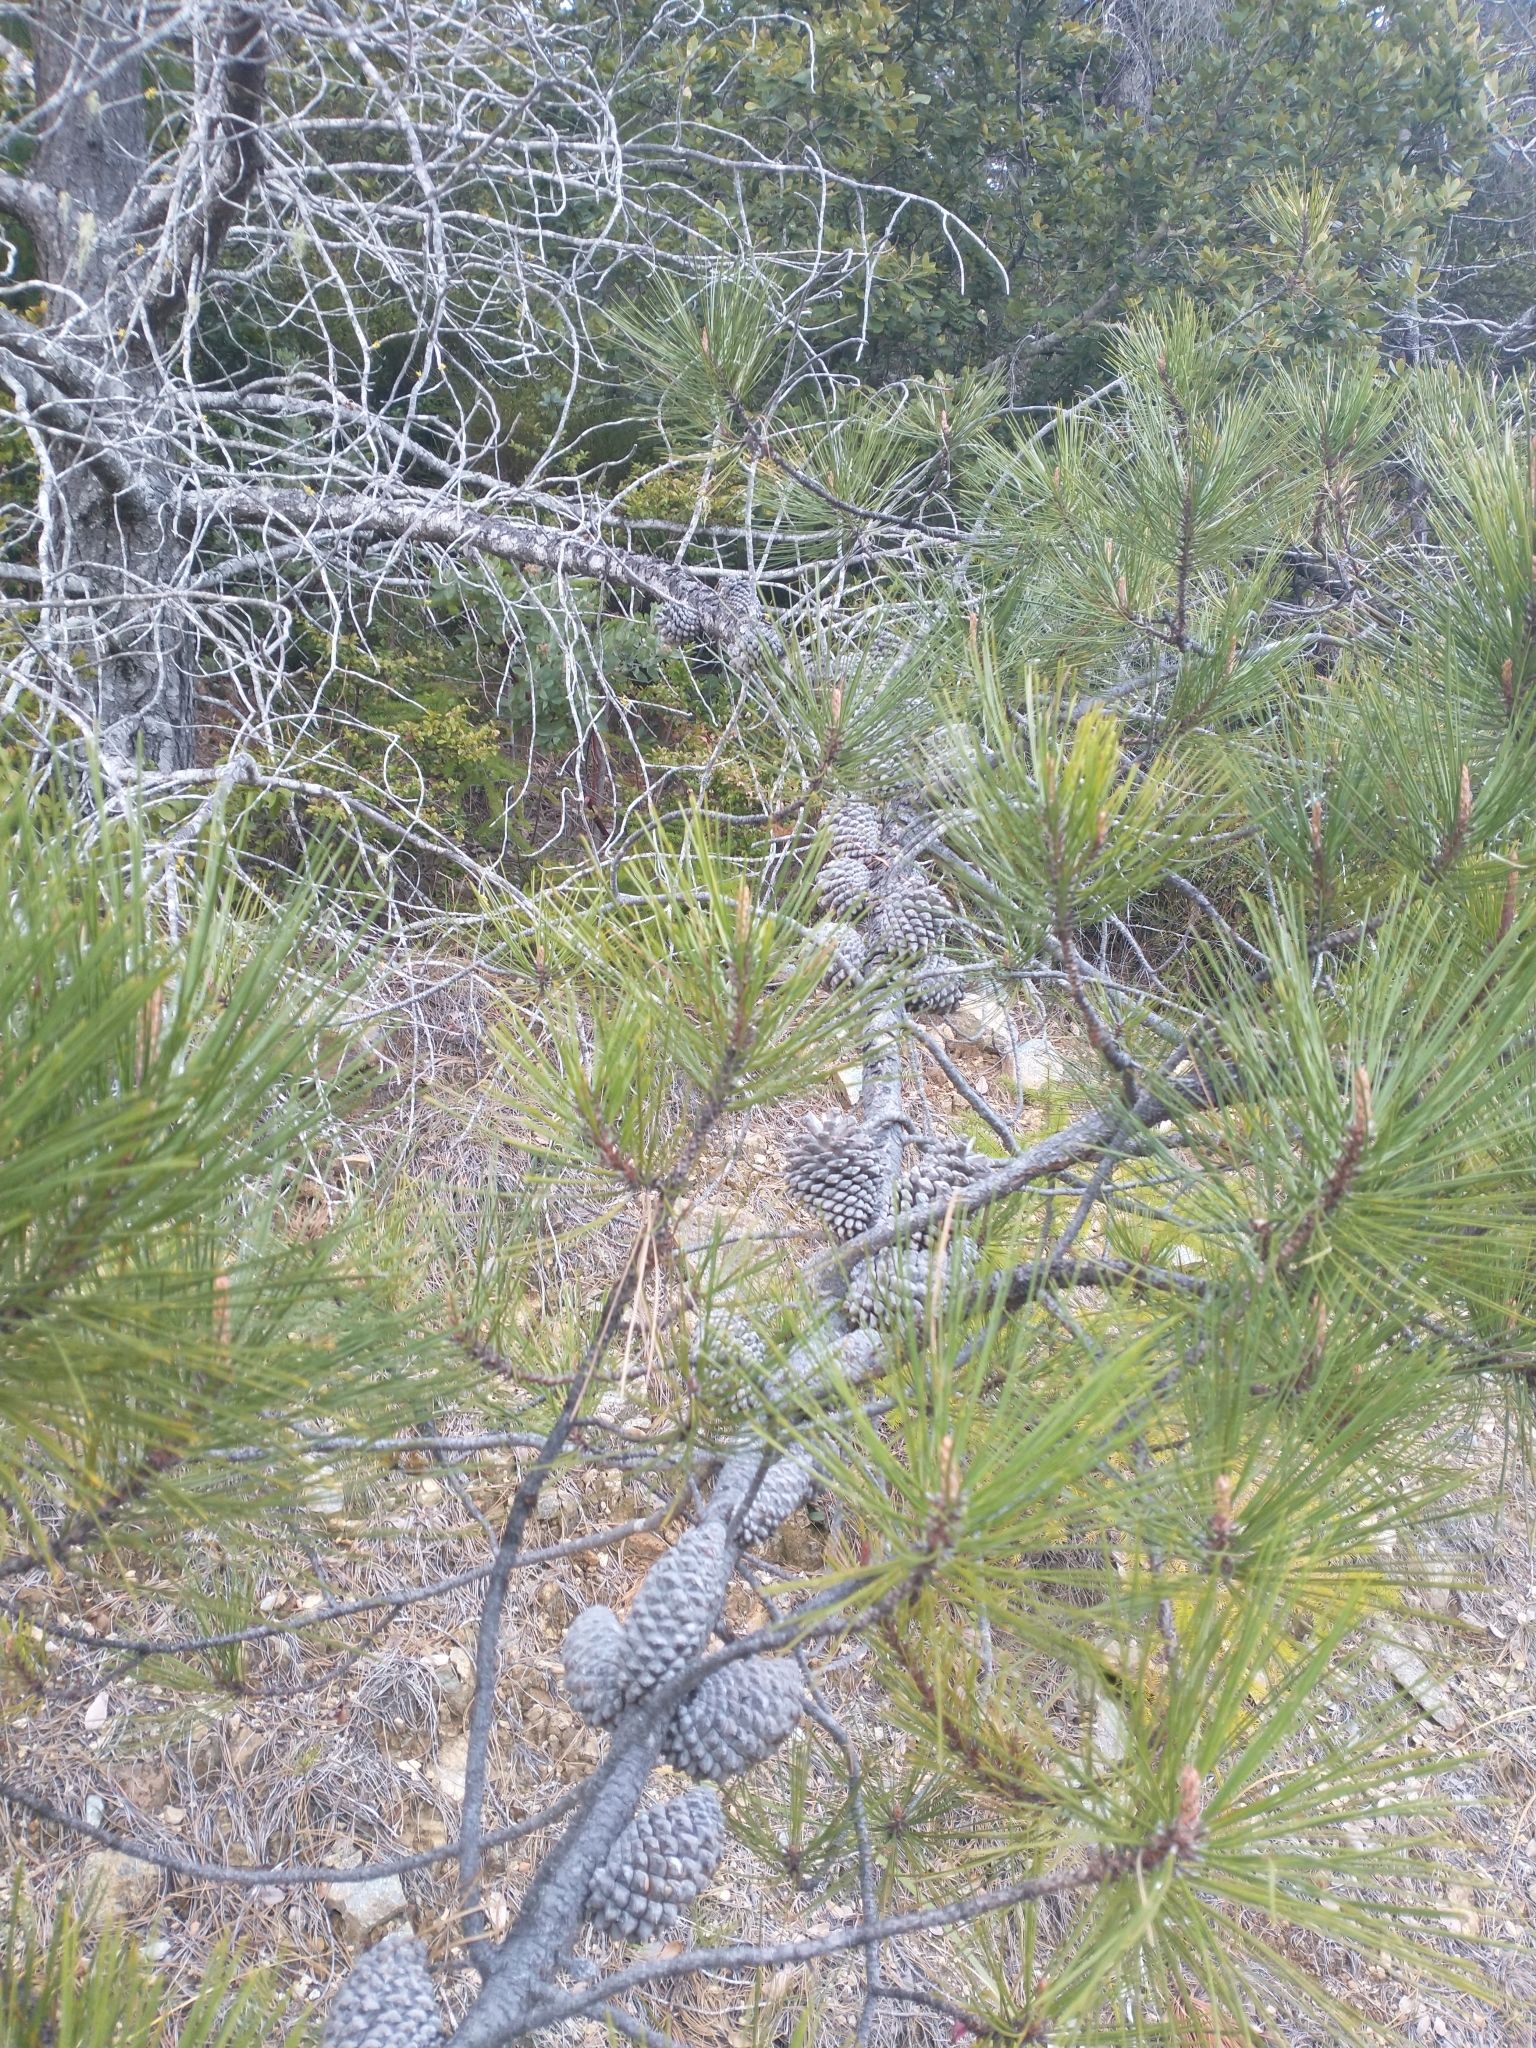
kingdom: Plantae
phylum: Tracheophyta
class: Pinopsida
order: Pinales
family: Pinaceae
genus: Pinus
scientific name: Pinus attenuata
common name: Knobcone pine
